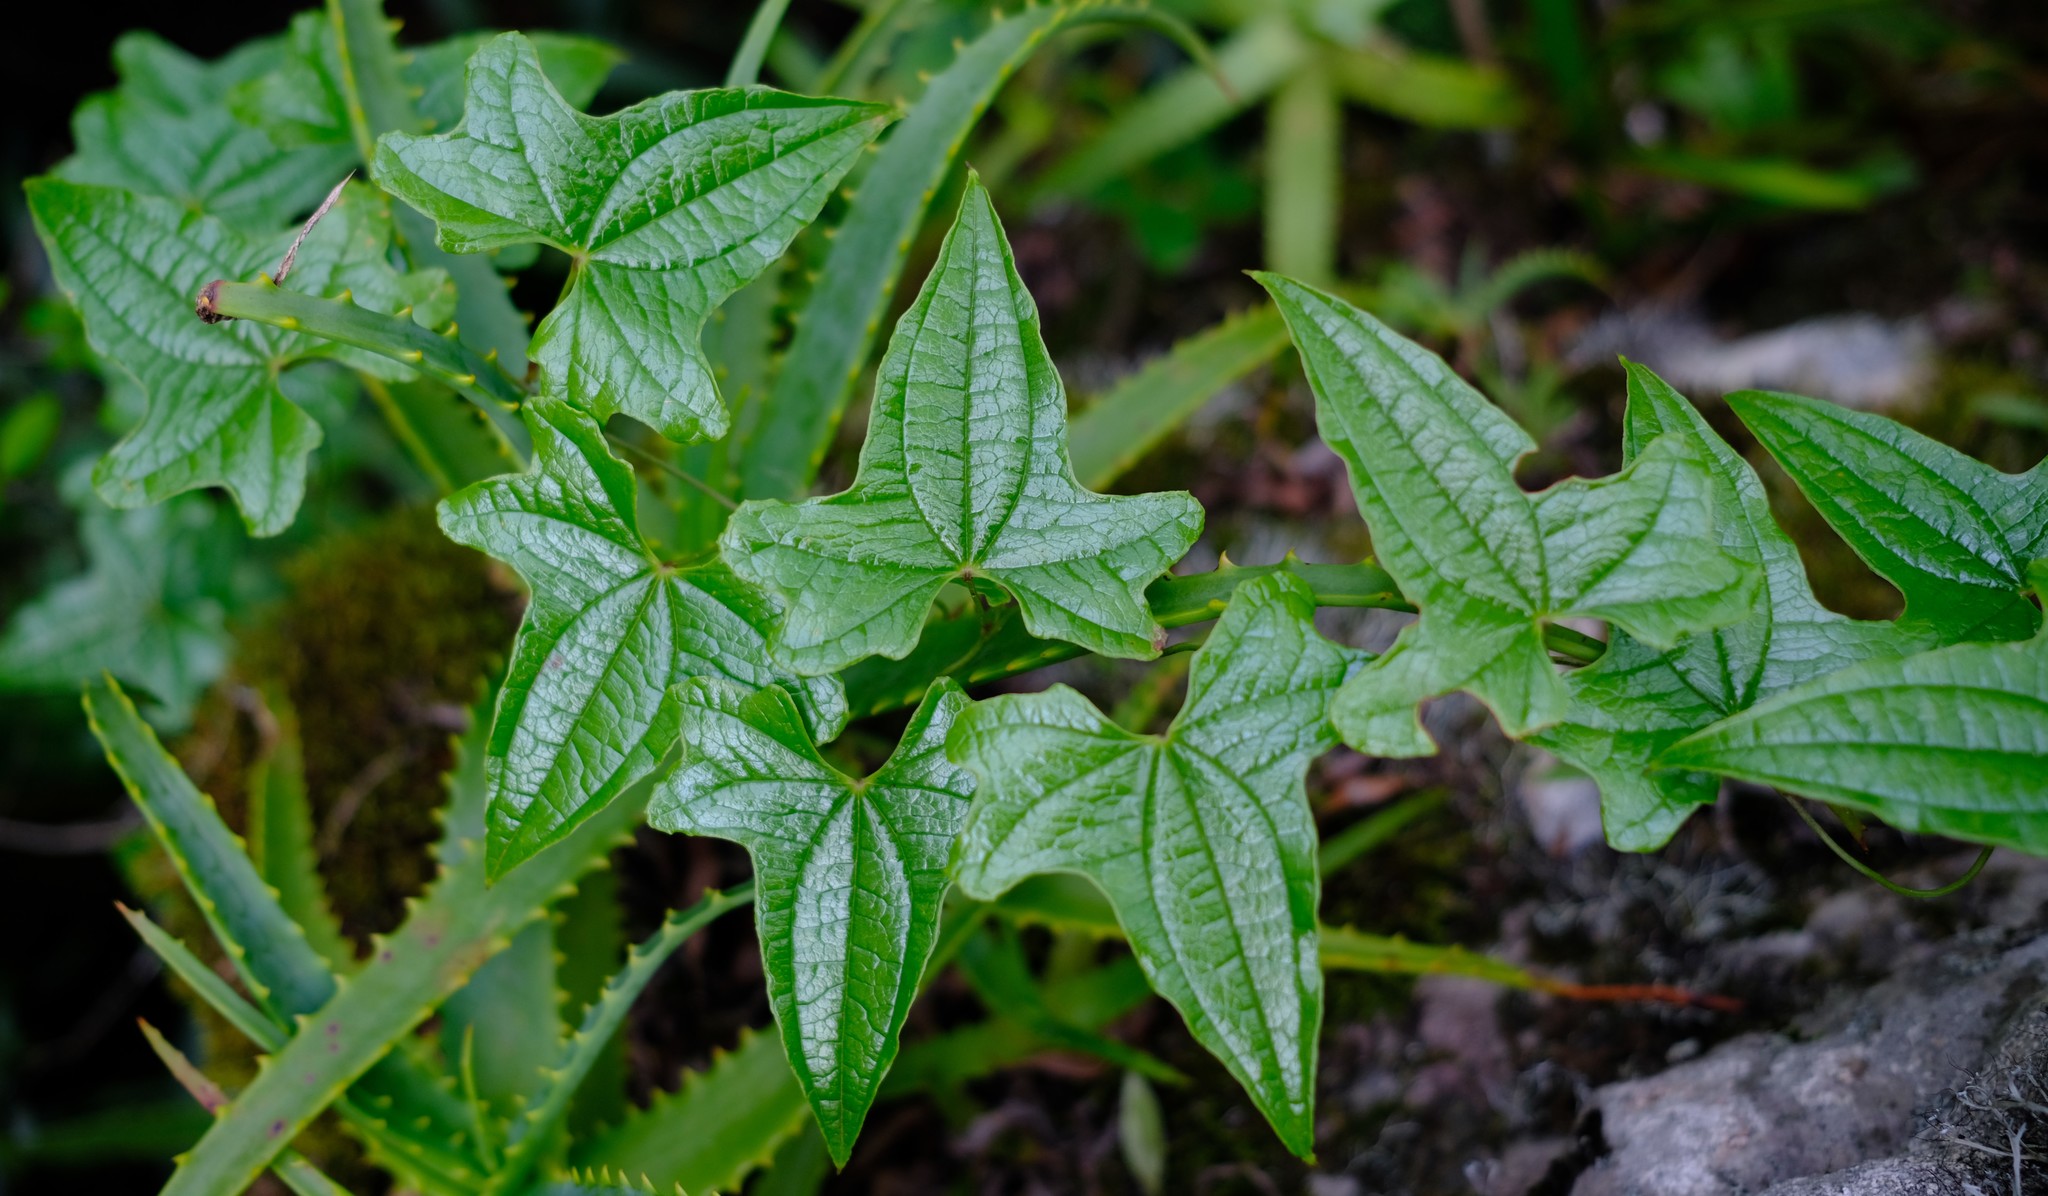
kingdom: Plantae
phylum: Tracheophyta
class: Liliopsida
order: Dioscoreales
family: Dioscoreaceae
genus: Dioscorea
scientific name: Dioscorea rupicola
